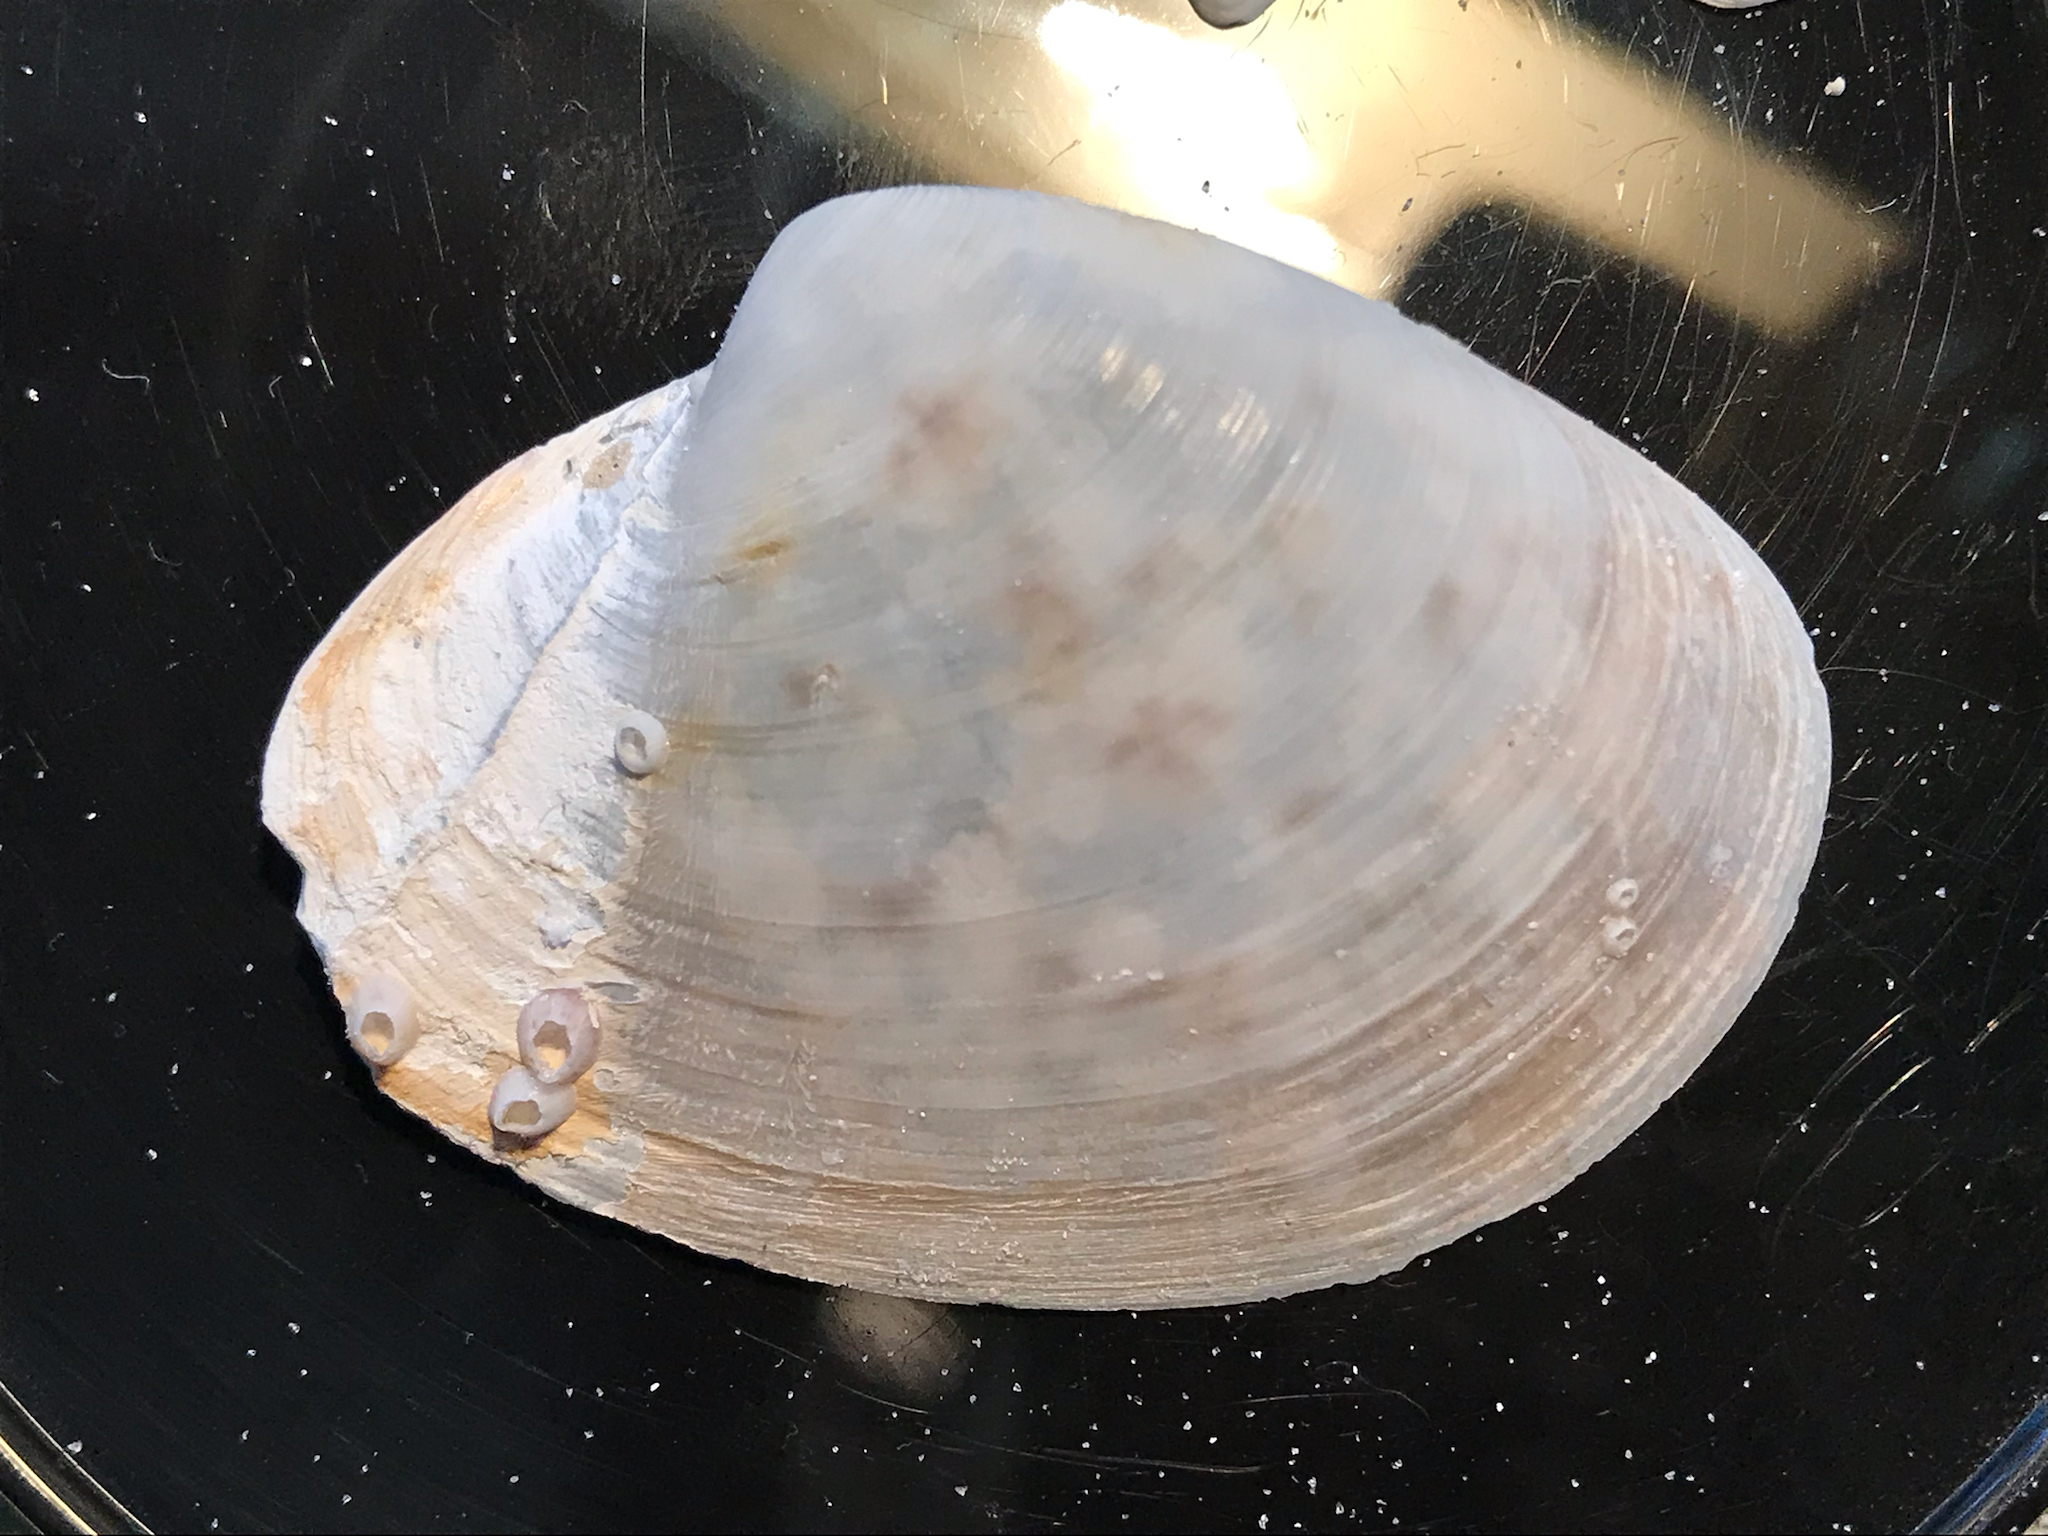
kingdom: Animalia
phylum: Mollusca
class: Bivalvia
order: Venerida
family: Anatinellidae
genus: Anatina
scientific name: Anatina anatina
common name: Smooth duckclam
